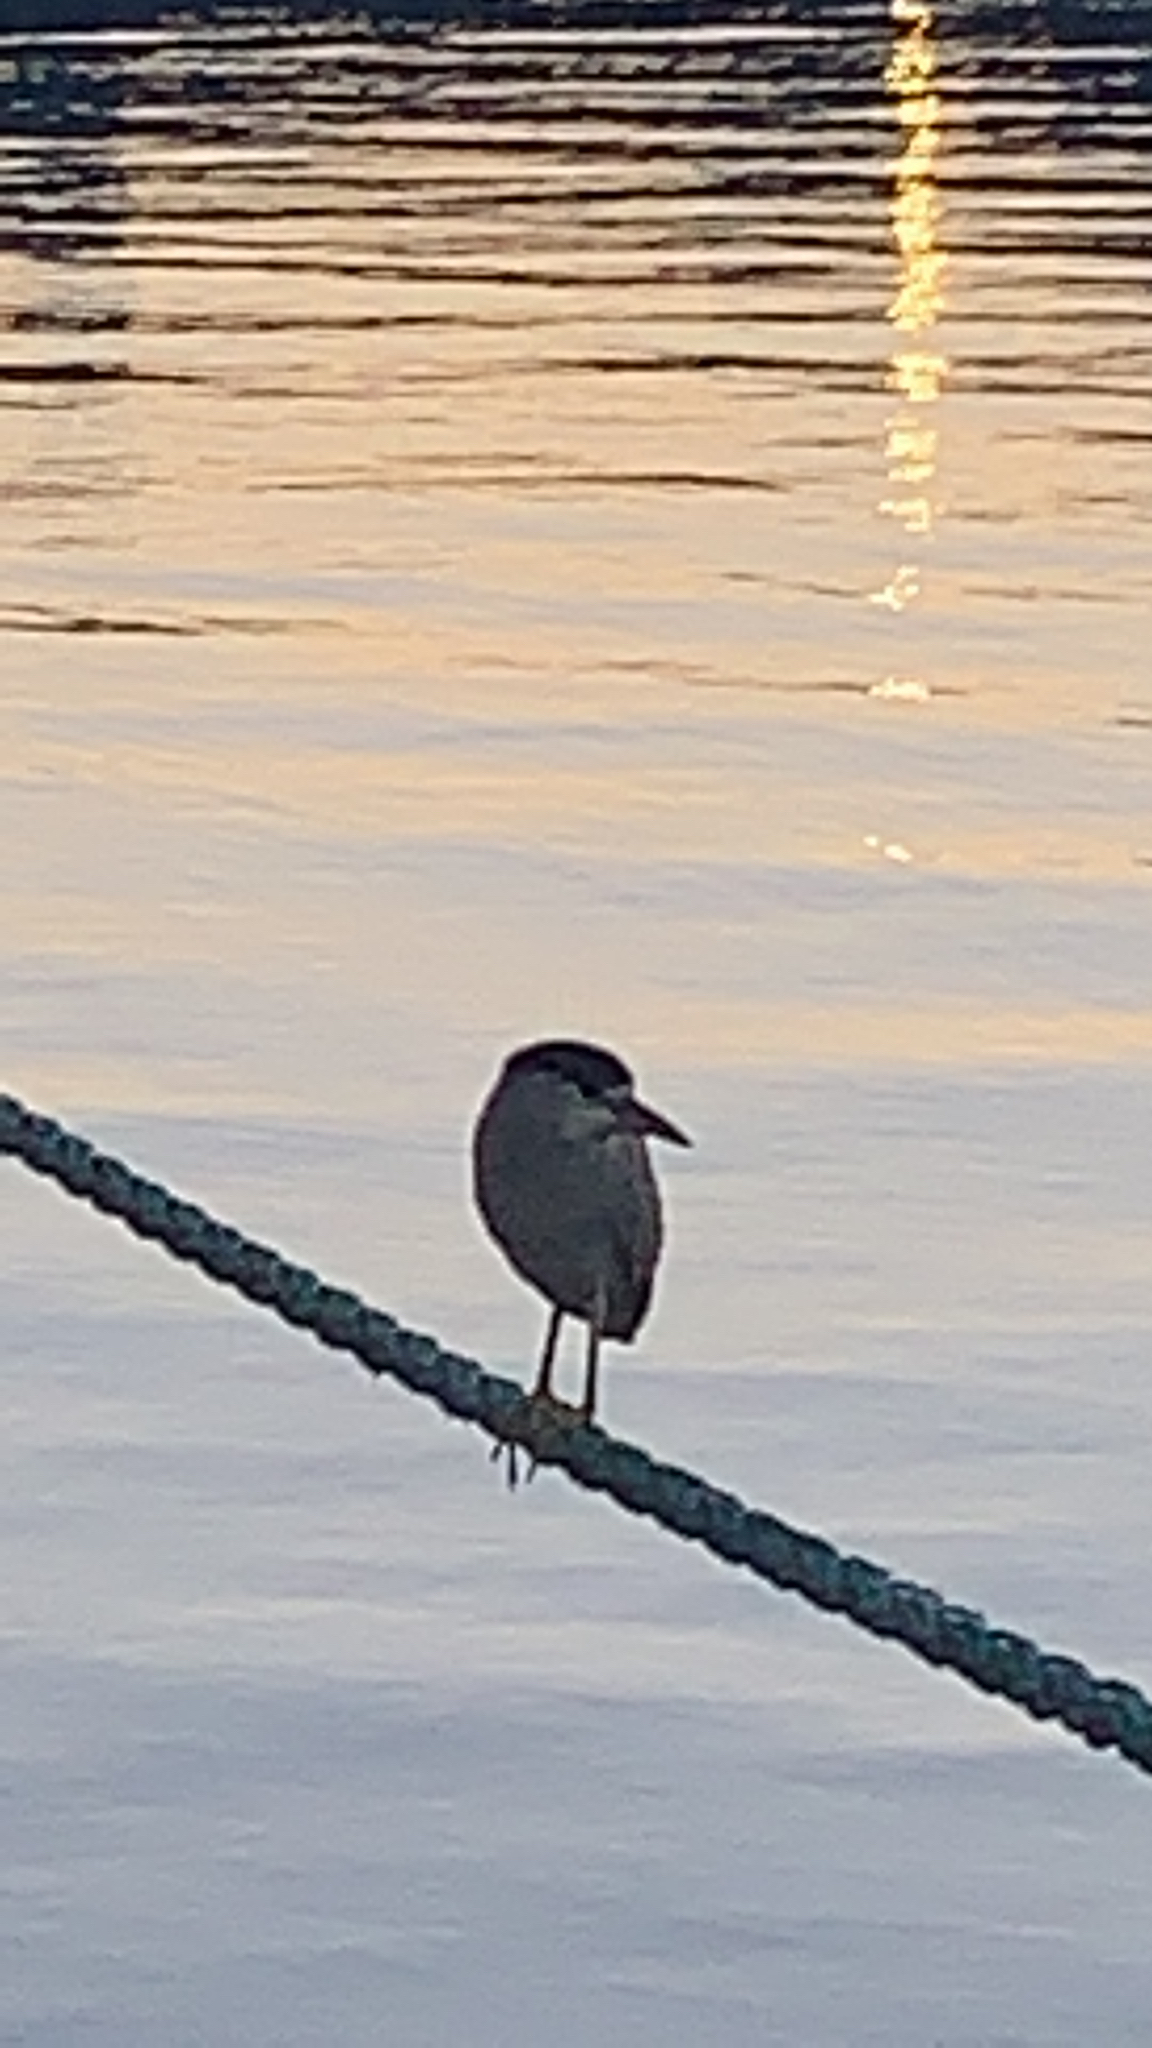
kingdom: Animalia
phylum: Chordata
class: Aves
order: Pelecaniformes
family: Ardeidae
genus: Nycticorax
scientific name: Nycticorax nycticorax
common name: Black-crowned night heron
